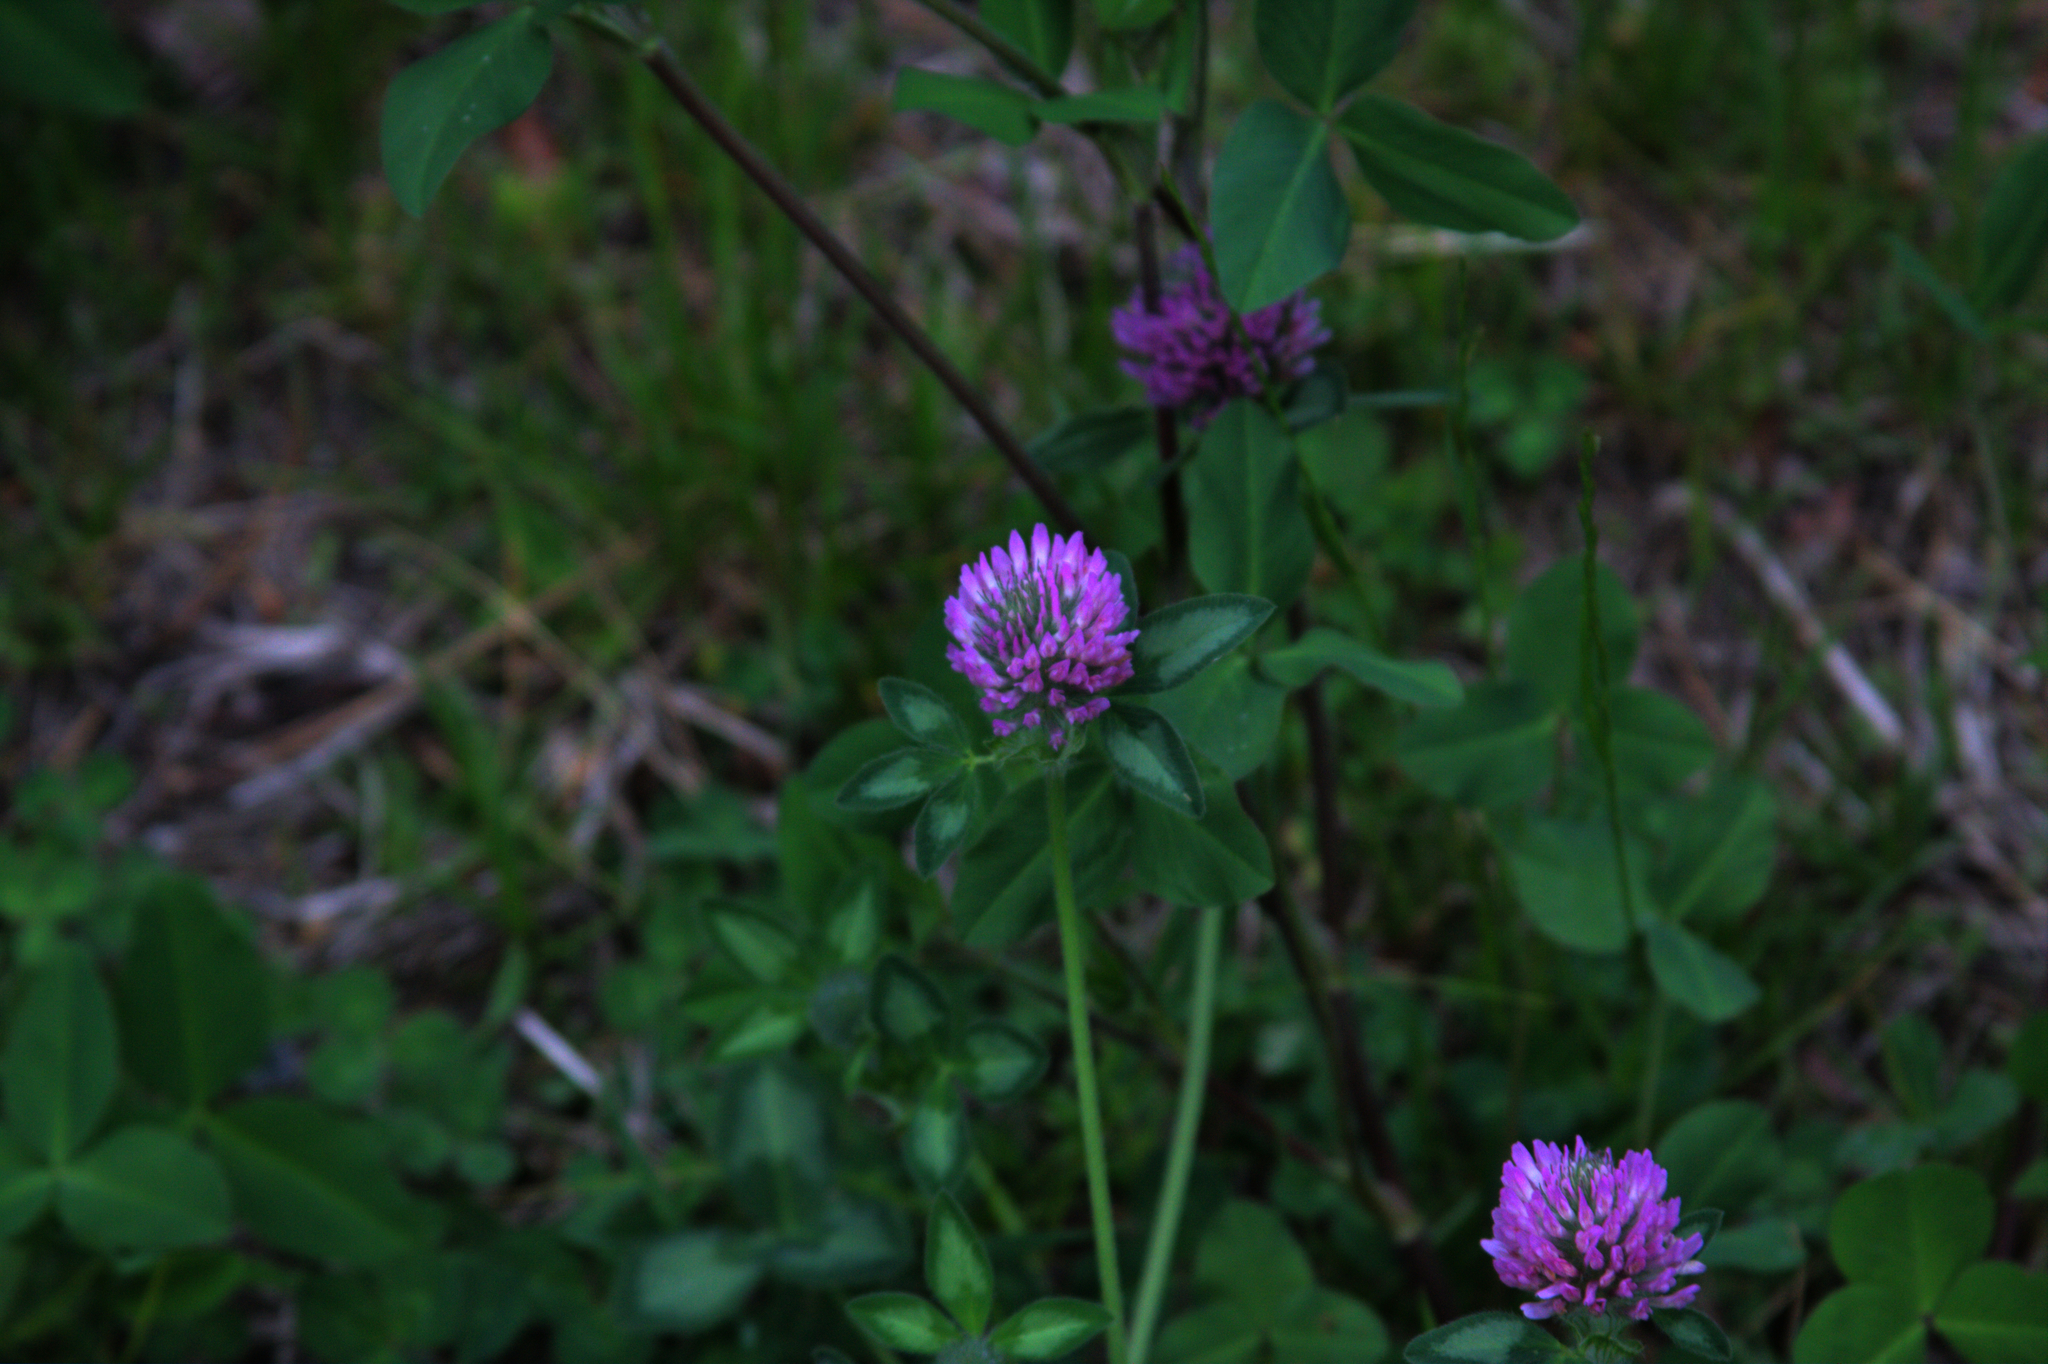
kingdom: Plantae
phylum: Tracheophyta
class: Magnoliopsida
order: Fabales
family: Fabaceae
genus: Trifolium
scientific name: Trifolium pratense
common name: Red clover
